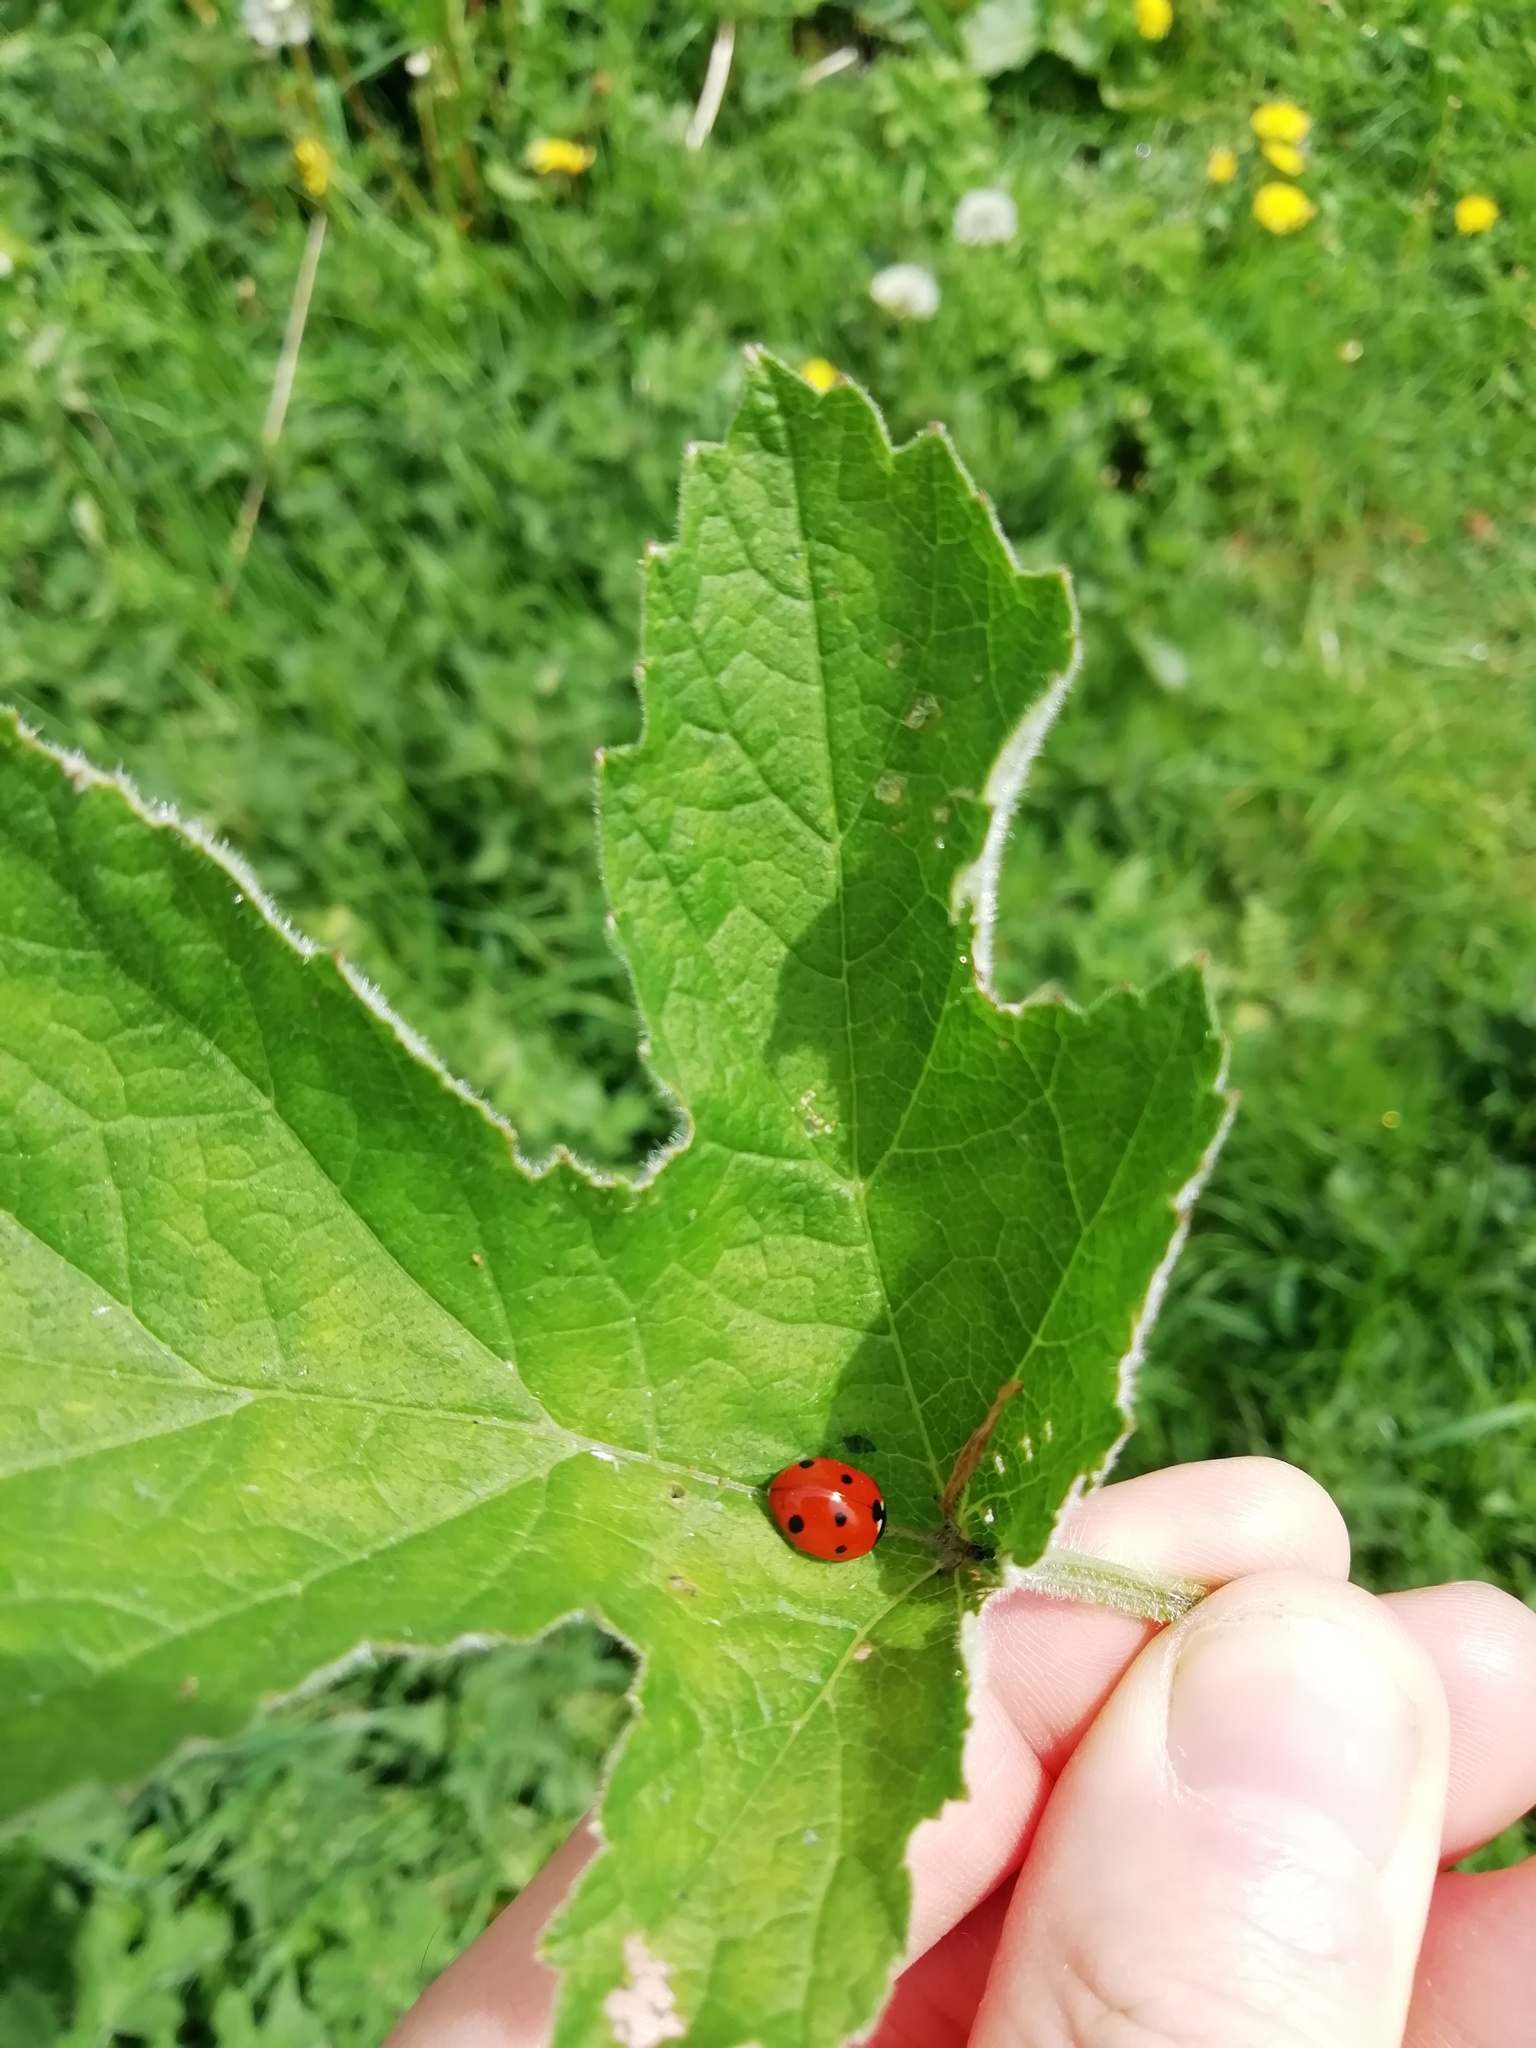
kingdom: Animalia
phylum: Arthropoda
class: Insecta
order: Coleoptera
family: Coccinellidae
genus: Coccinella
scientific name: Coccinella septempunctata
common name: Sevenspotted lady beetle
